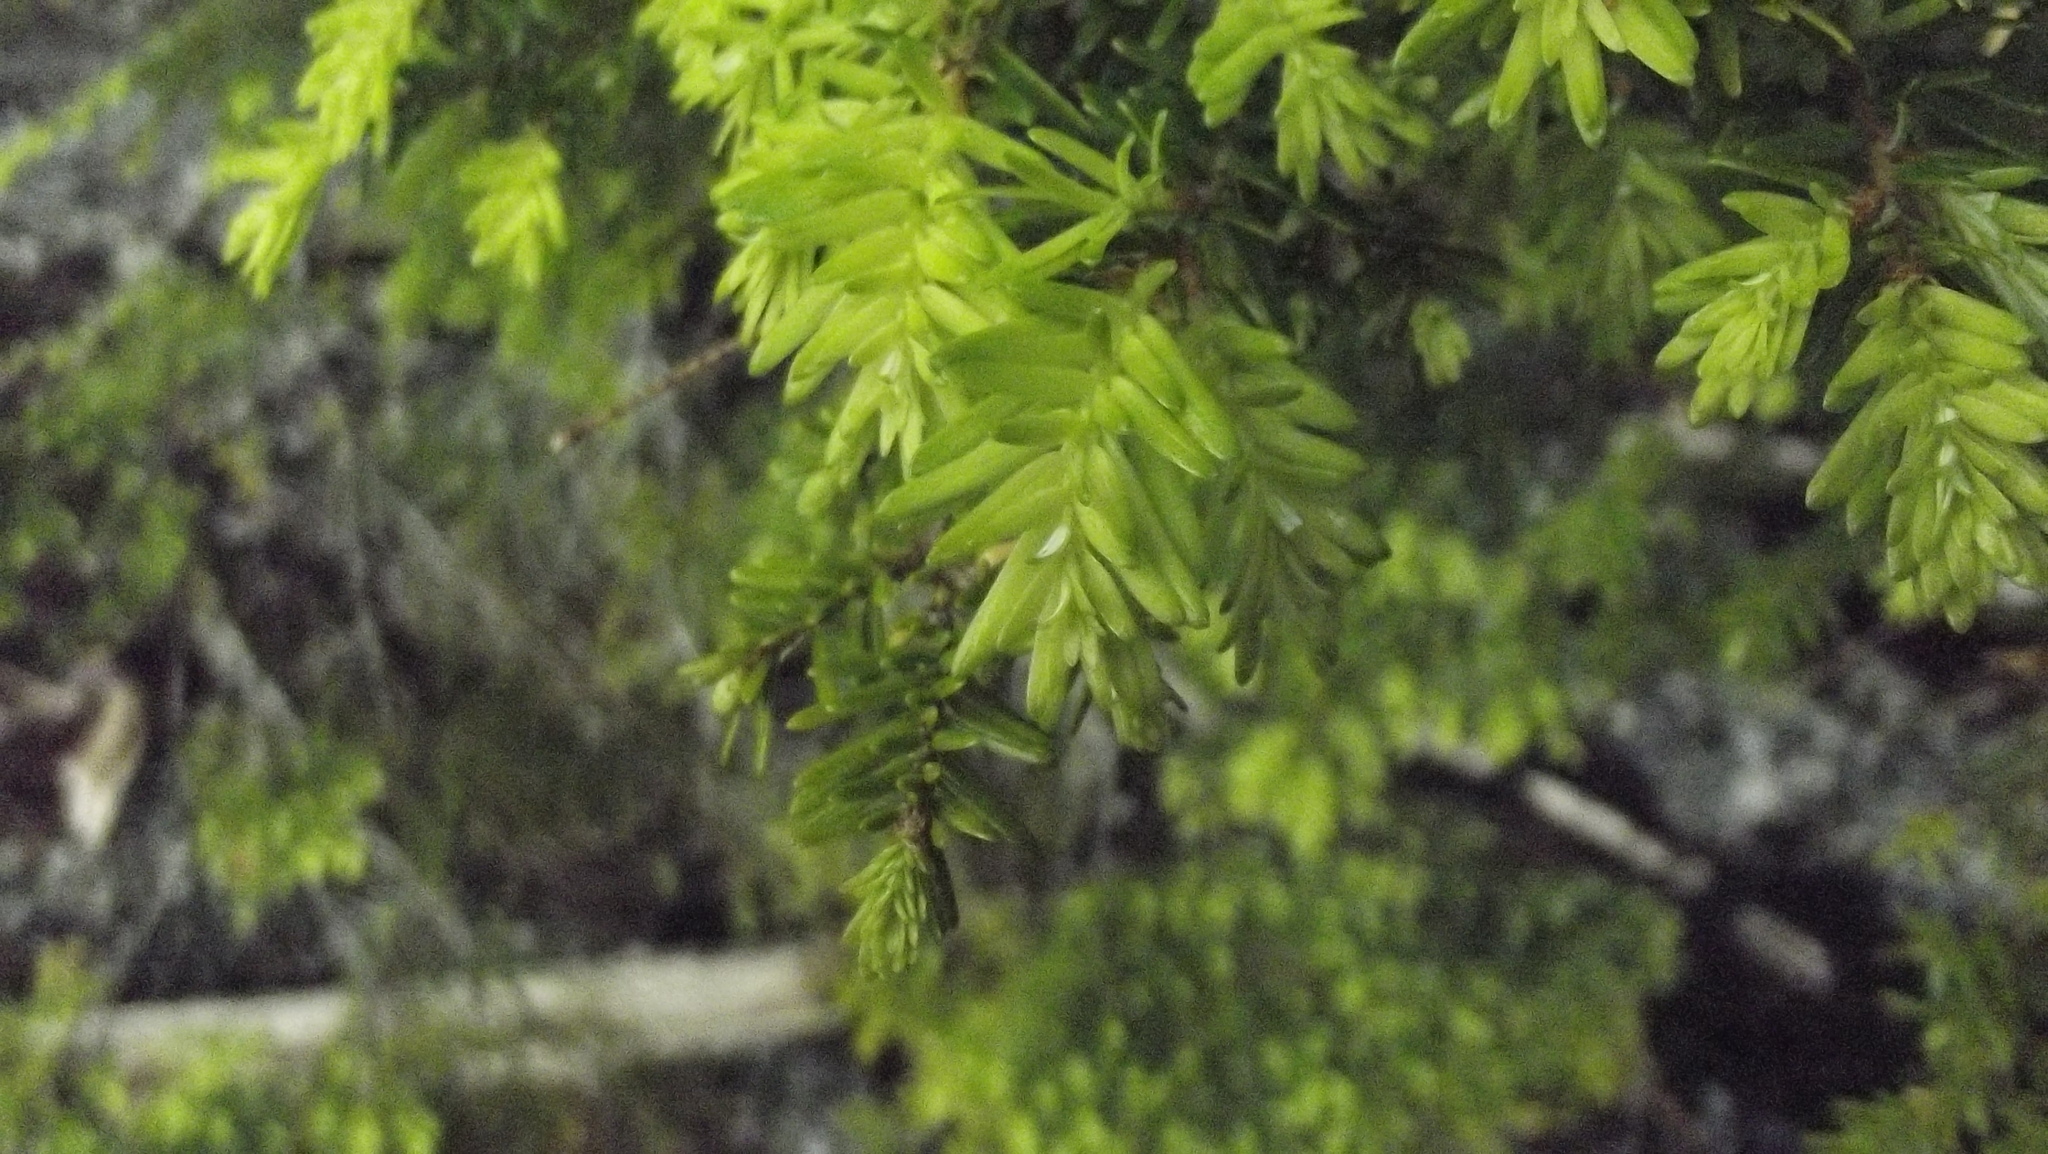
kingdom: Plantae
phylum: Tracheophyta
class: Pinopsida
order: Pinales
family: Pinaceae
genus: Tsuga
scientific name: Tsuga heterophylla
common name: Western hemlock
